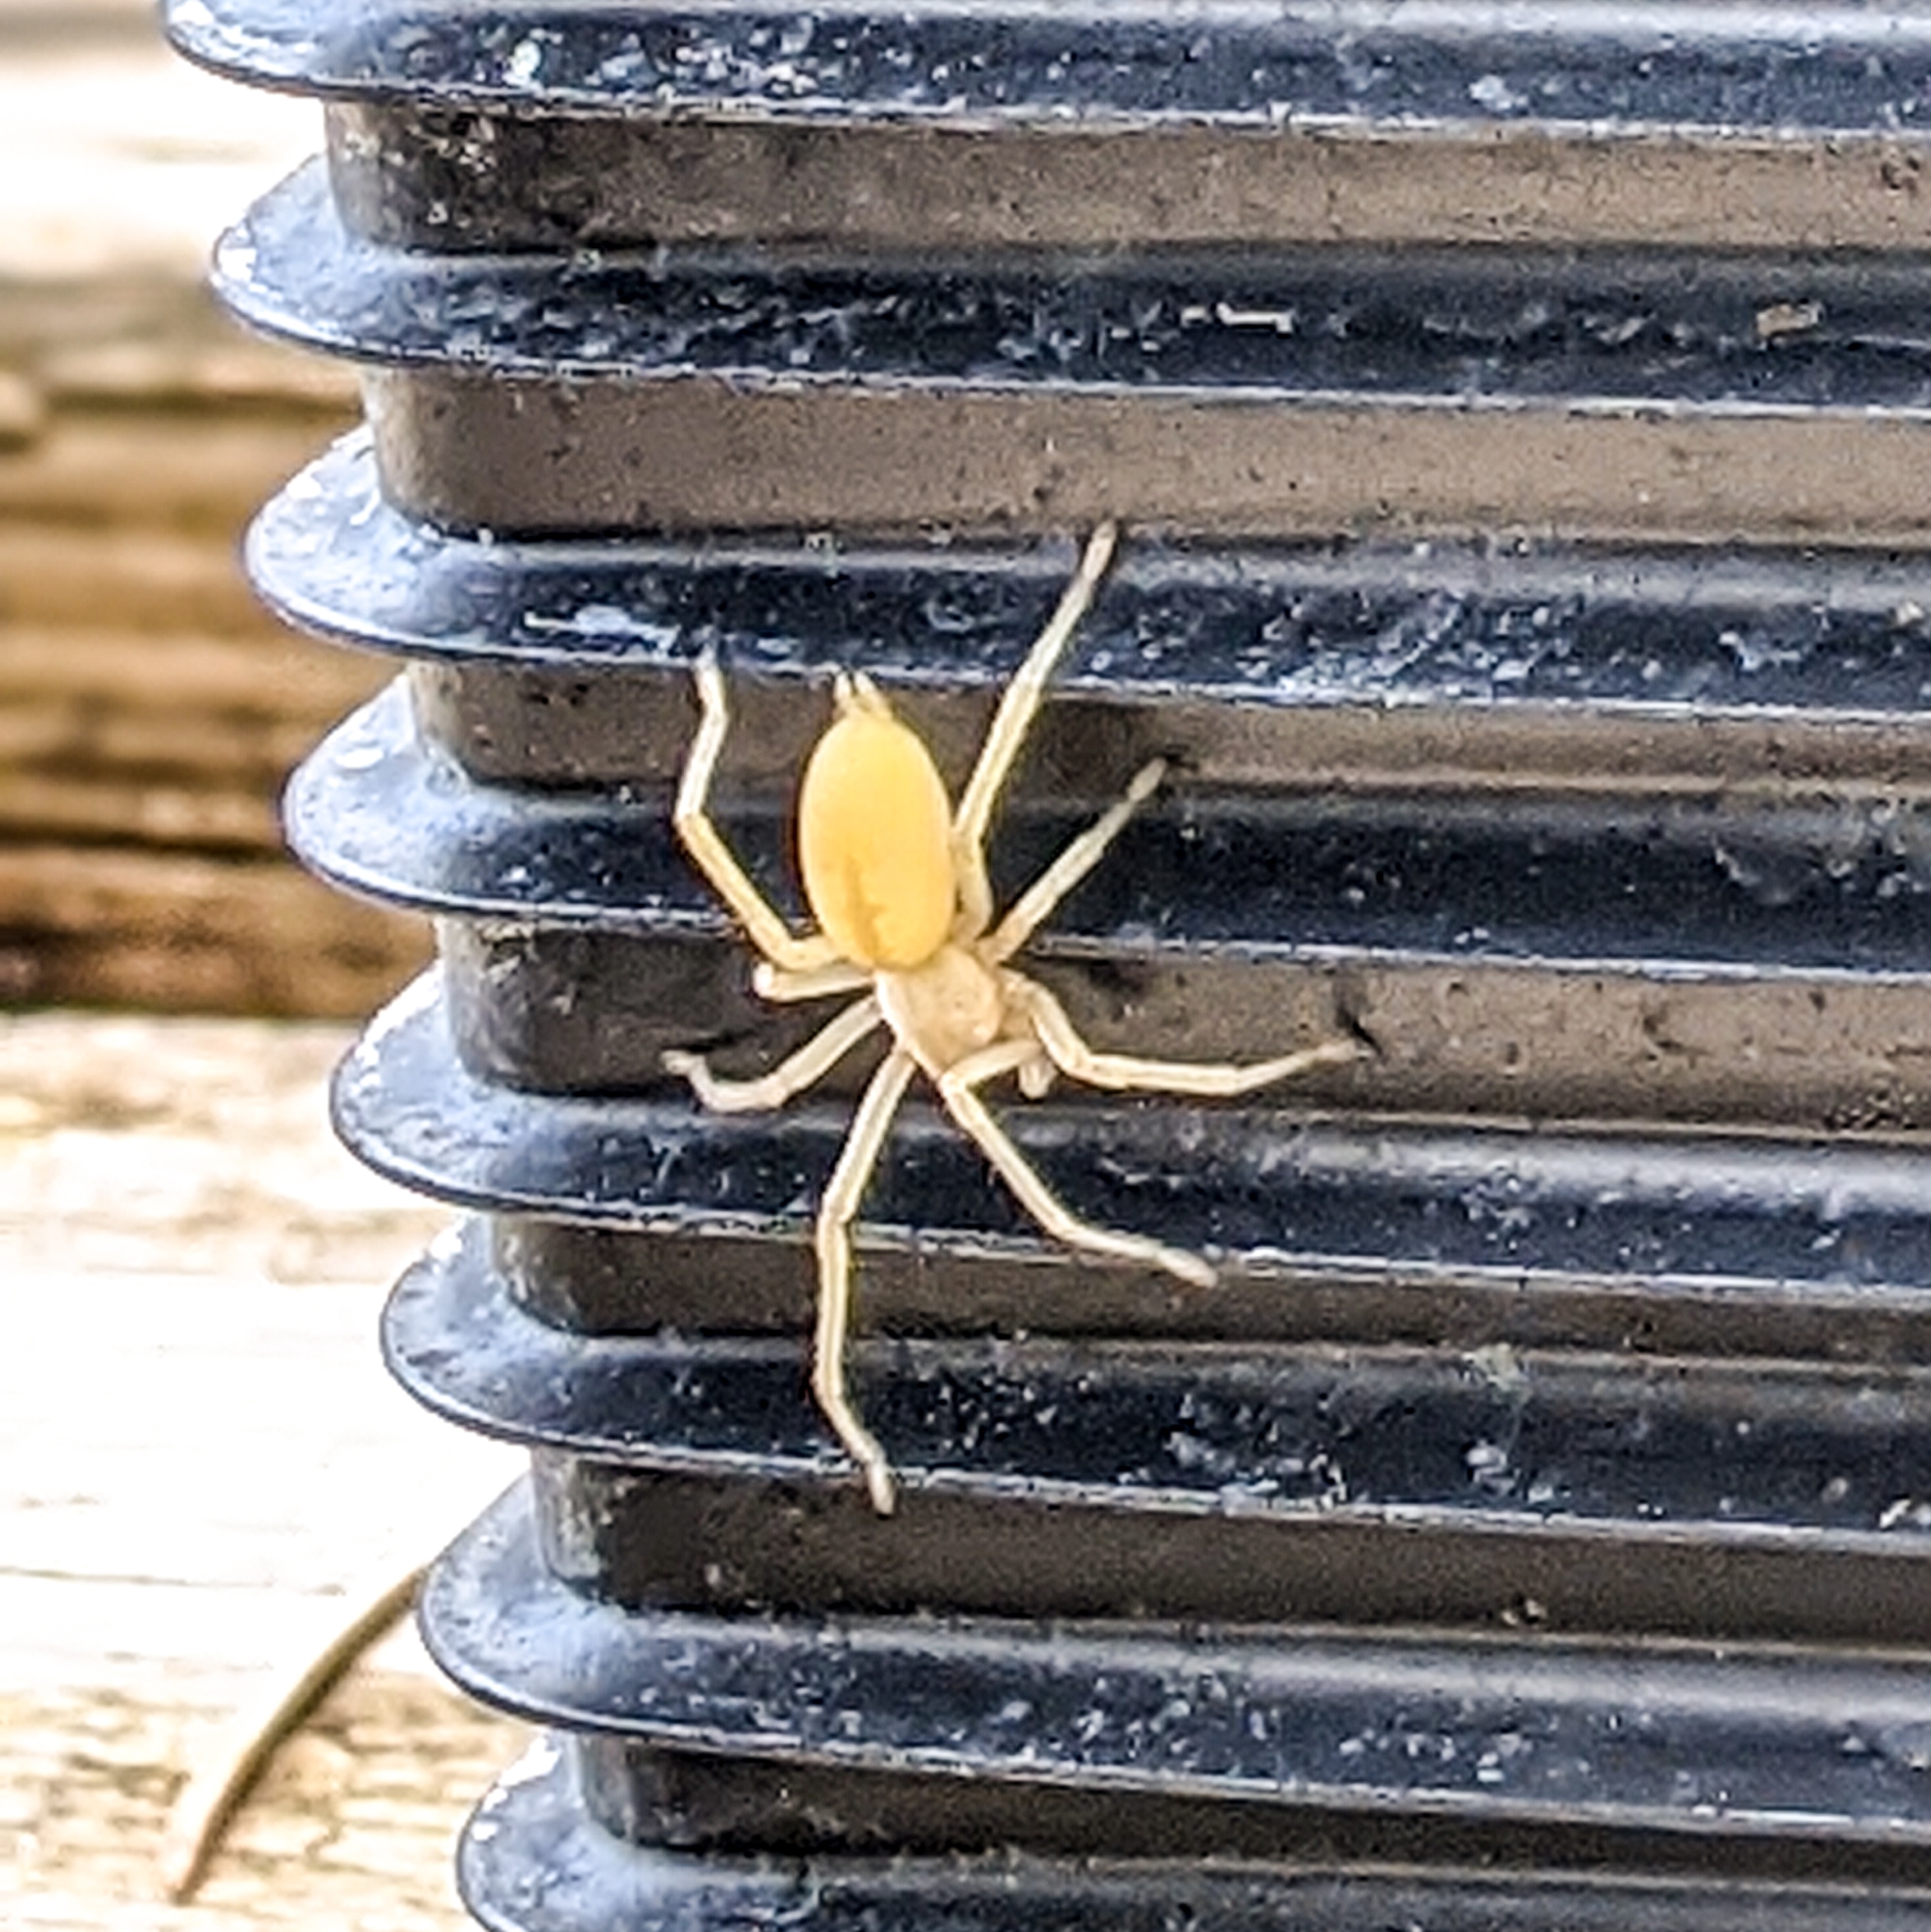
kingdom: Animalia
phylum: Arthropoda
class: Arachnida
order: Araneae
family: Cheiracanthiidae
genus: Cheiracanthium
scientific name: Cheiracanthium mildei
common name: Northern yellow sac spider
